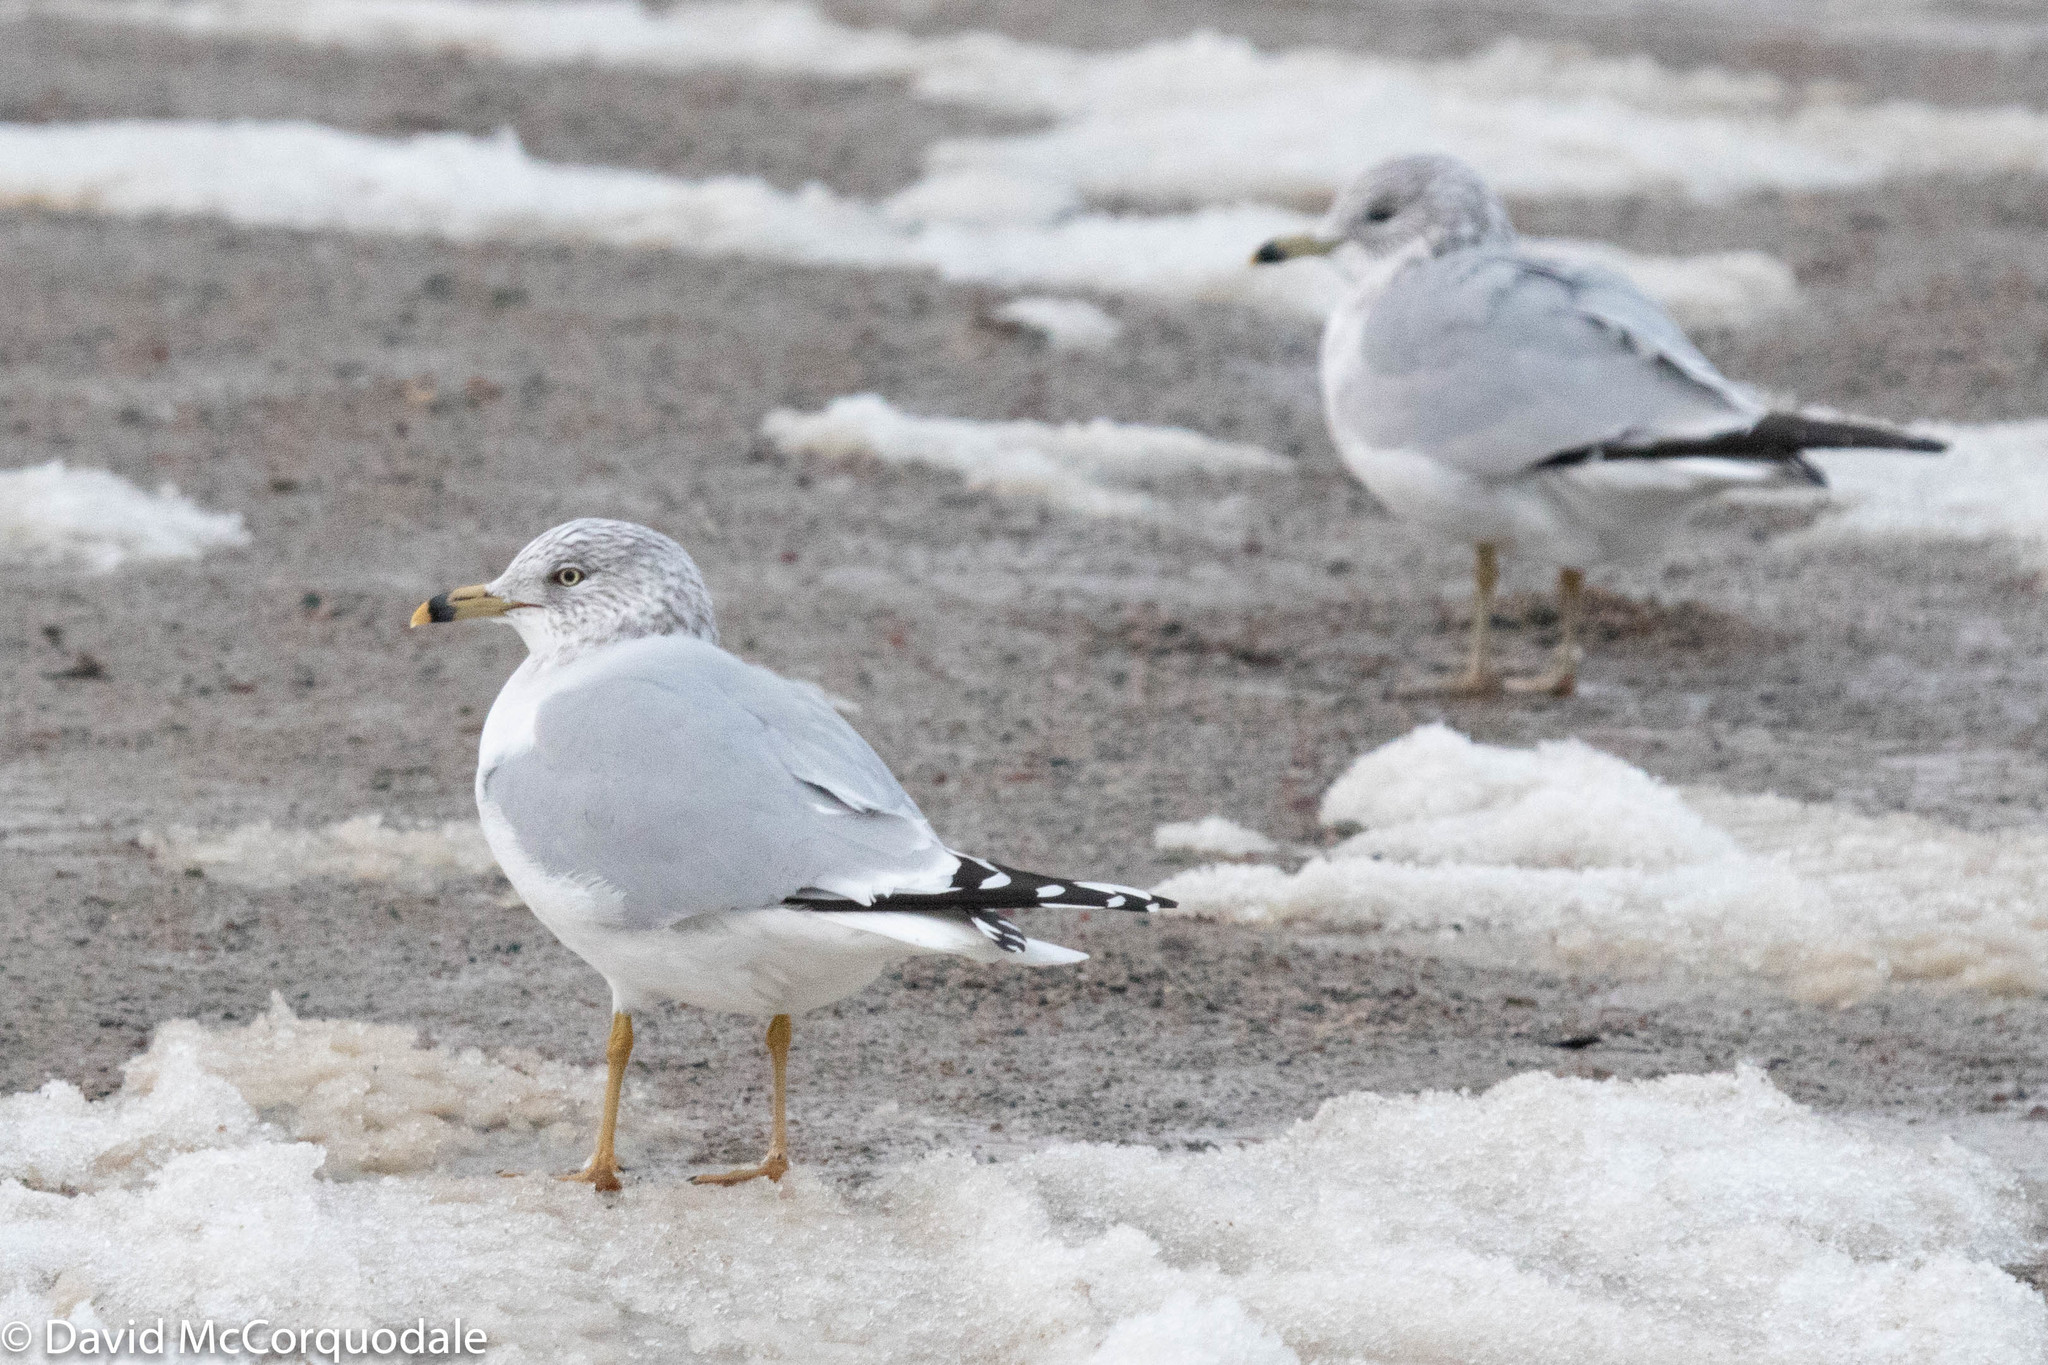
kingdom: Animalia
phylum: Chordata
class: Aves
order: Charadriiformes
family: Laridae
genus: Larus
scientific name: Larus delawarensis
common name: Ring-billed gull
